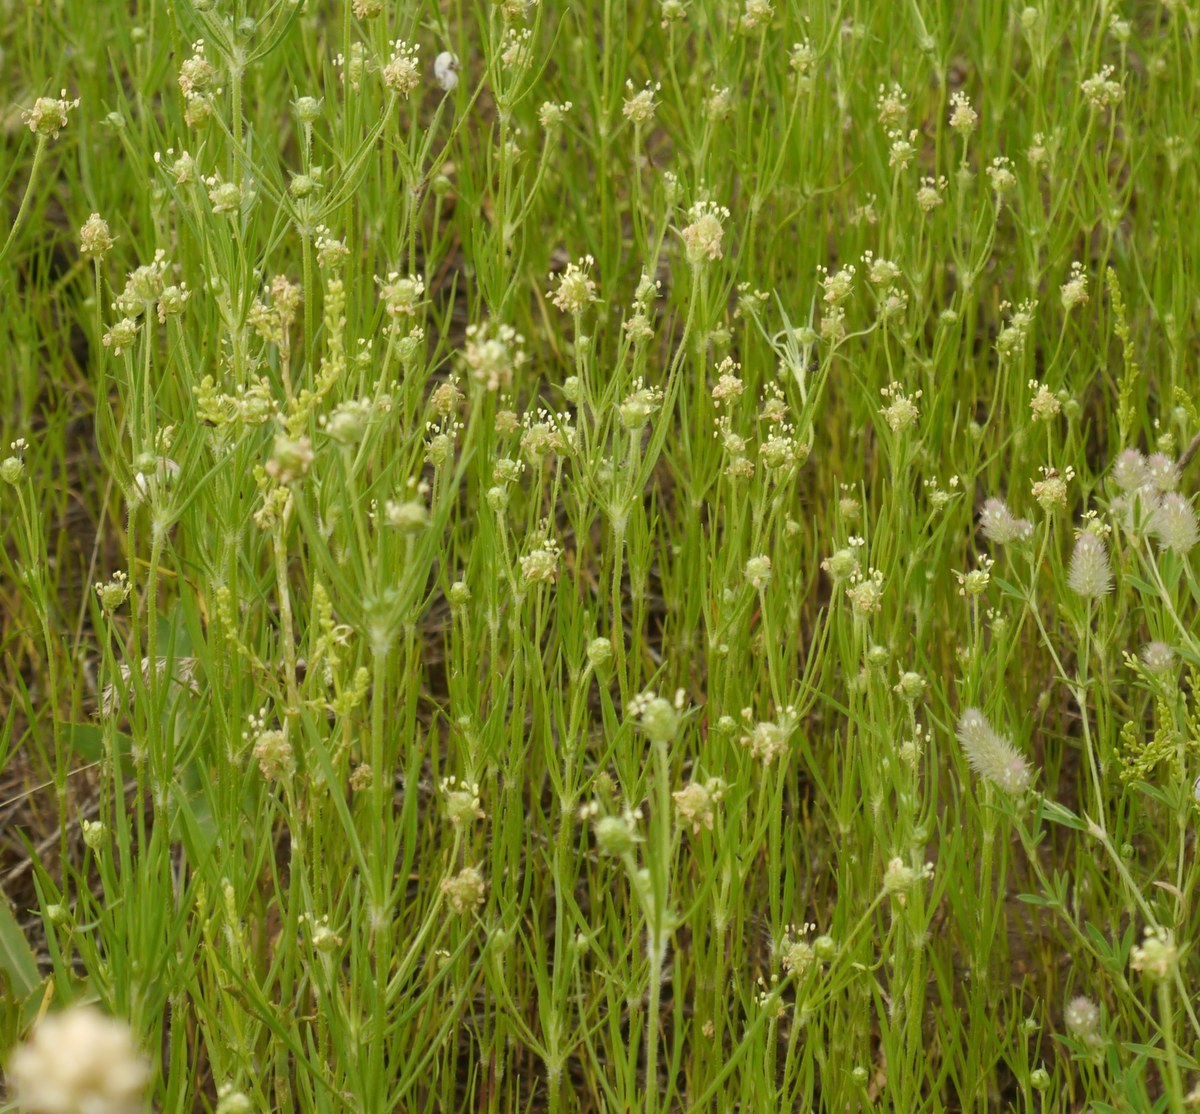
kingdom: Plantae
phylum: Tracheophyta
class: Magnoliopsida
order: Lamiales
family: Plantaginaceae
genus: Plantago
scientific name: Plantago arenaria
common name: Branched plantain
